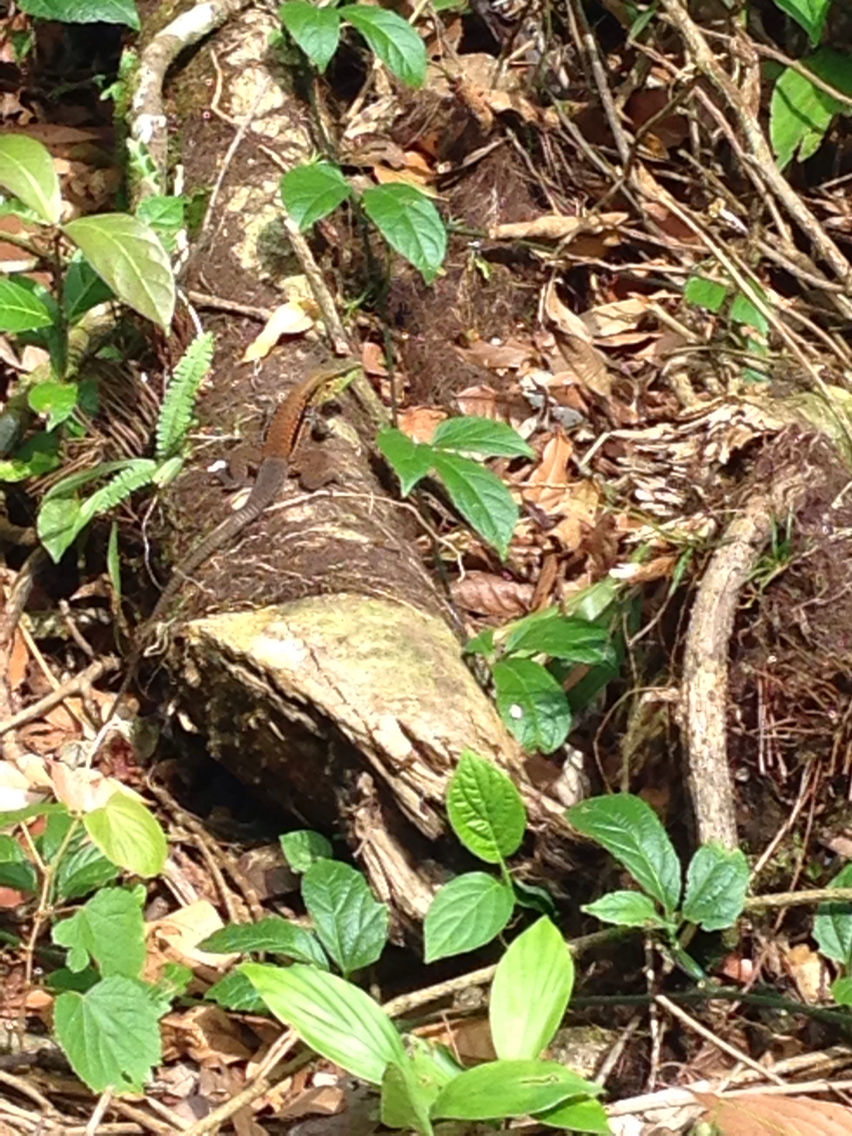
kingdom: Animalia
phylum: Chordata
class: Squamata
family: Teiidae
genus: Holcosus
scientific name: Holcosus quadrilineatus
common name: Four-lined ameiva
